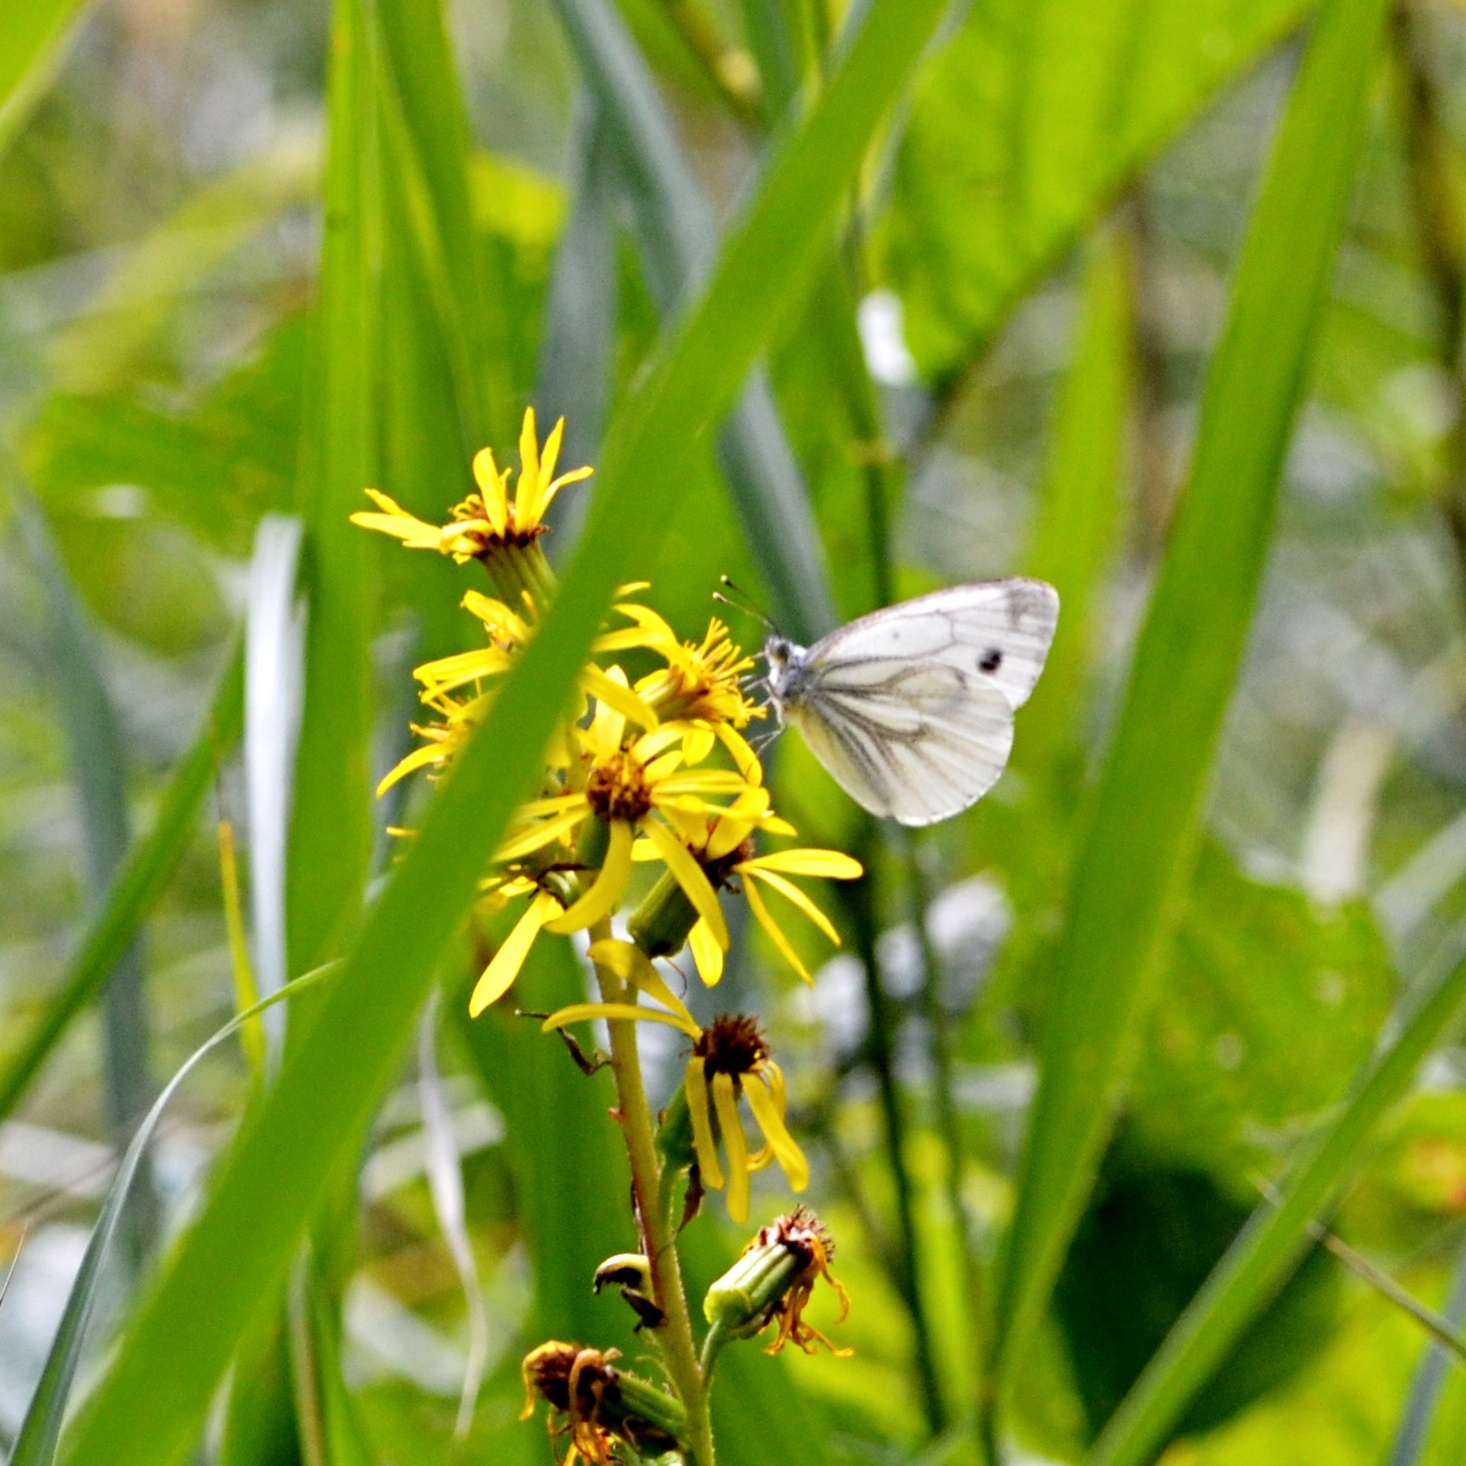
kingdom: Animalia
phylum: Arthropoda
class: Insecta
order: Lepidoptera
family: Pieridae
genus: Pieris
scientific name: Pieris napi
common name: Green-veined white
